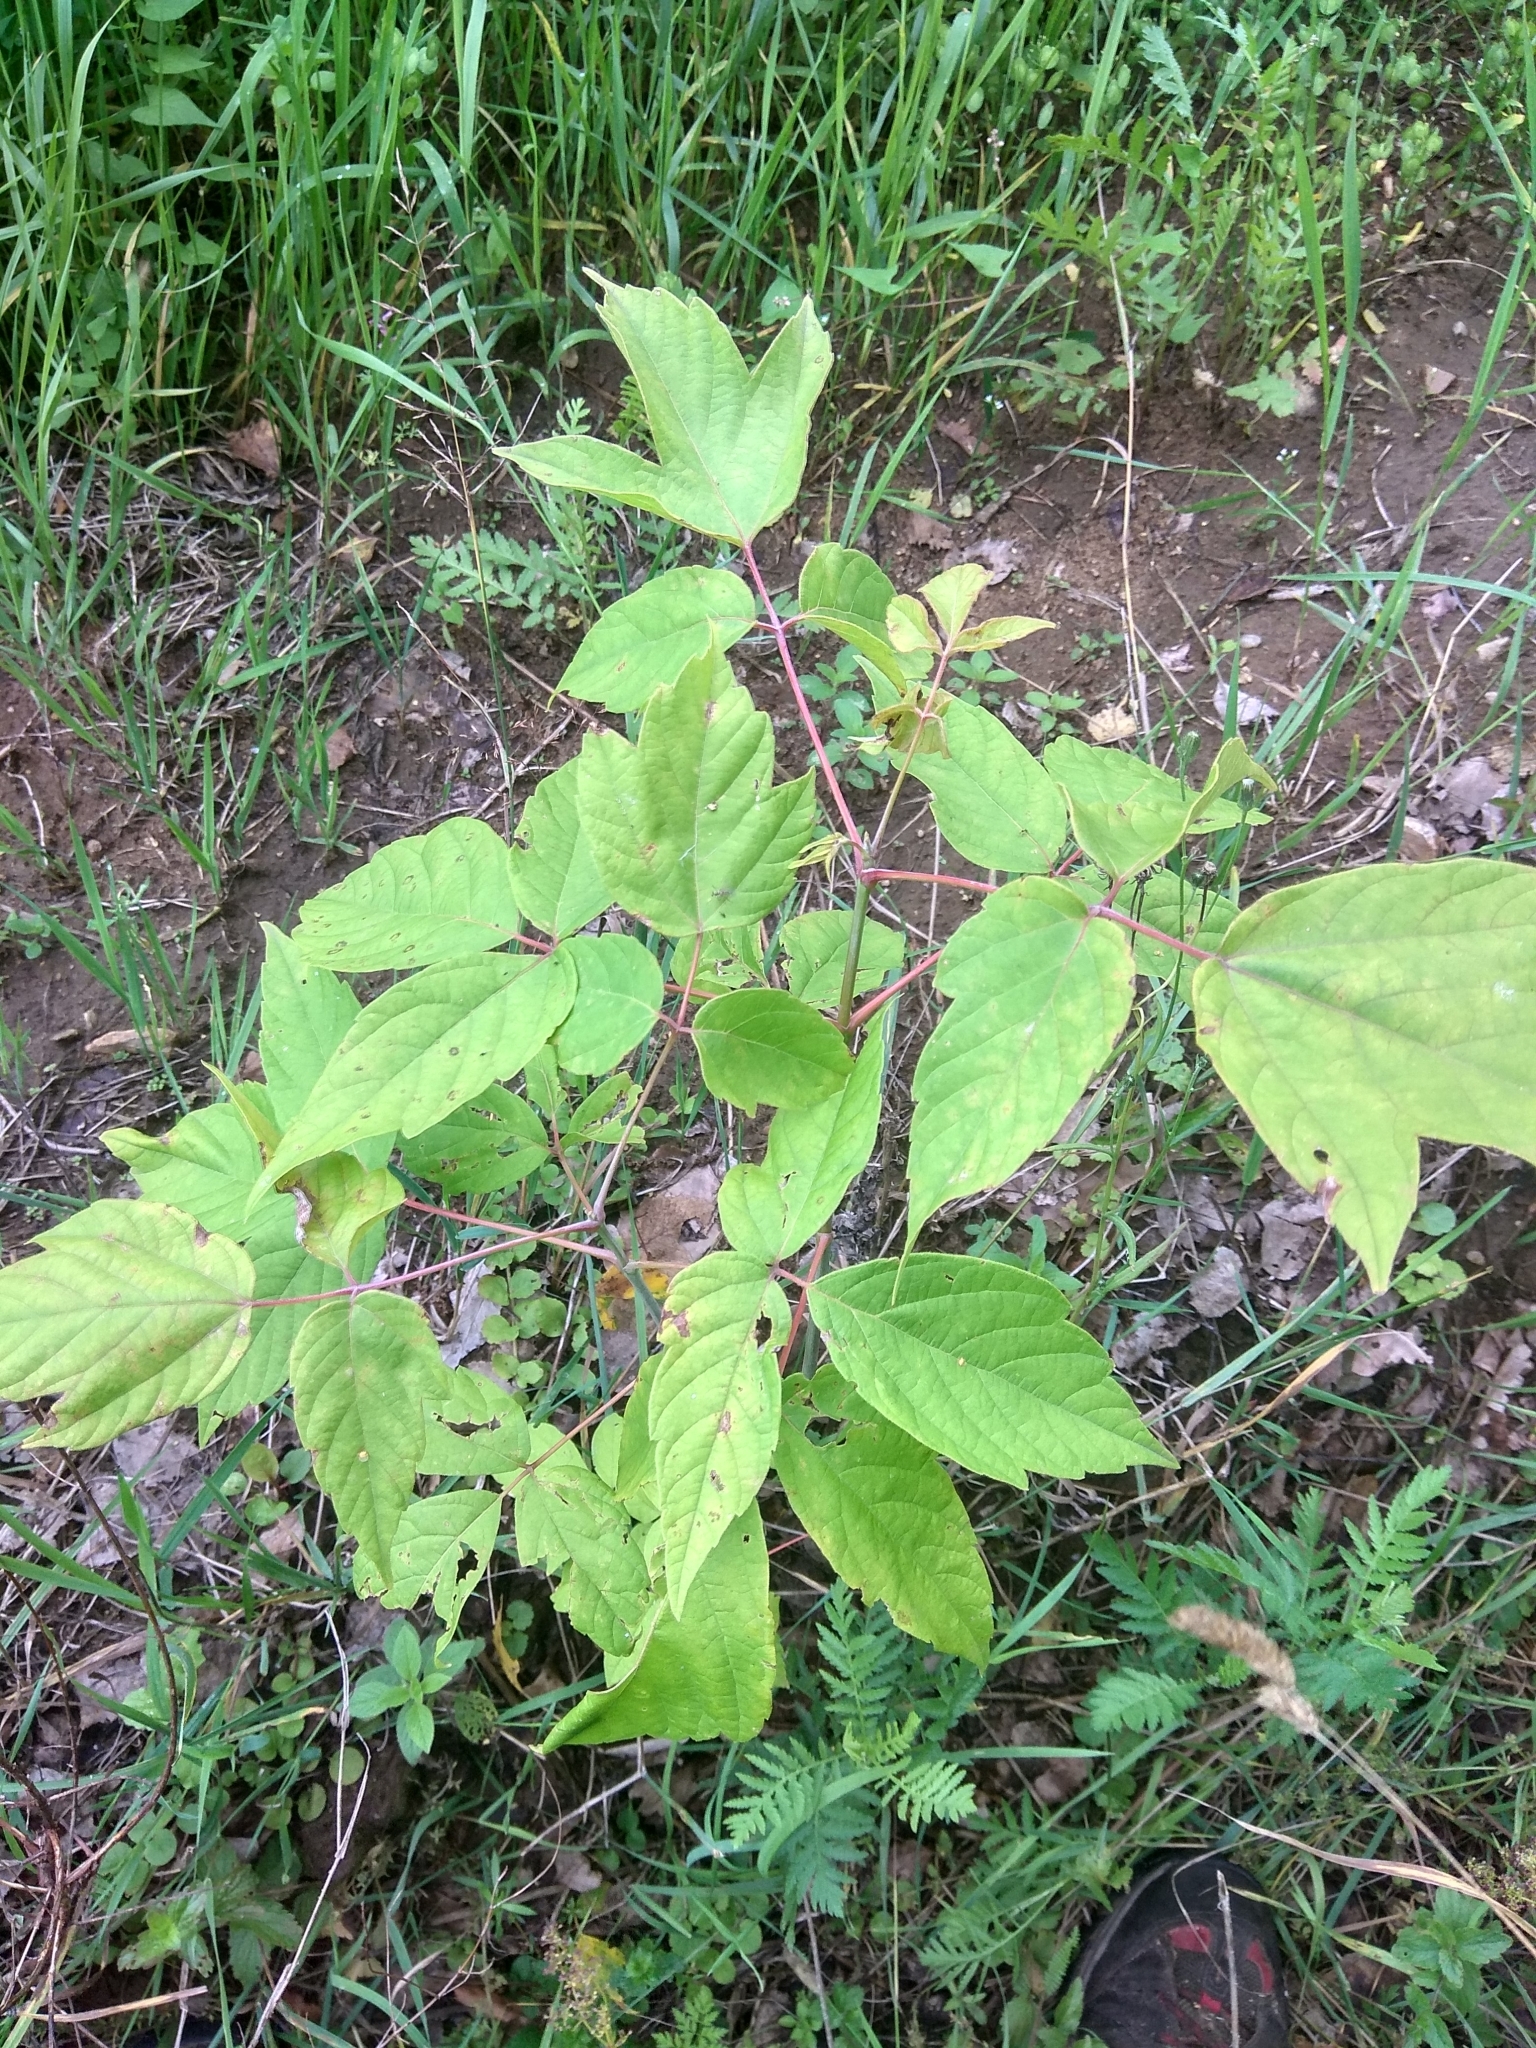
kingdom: Plantae
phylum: Tracheophyta
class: Magnoliopsida
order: Sapindales
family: Sapindaceae
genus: Acer
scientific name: Acer negundo
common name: Ashleaf maple
